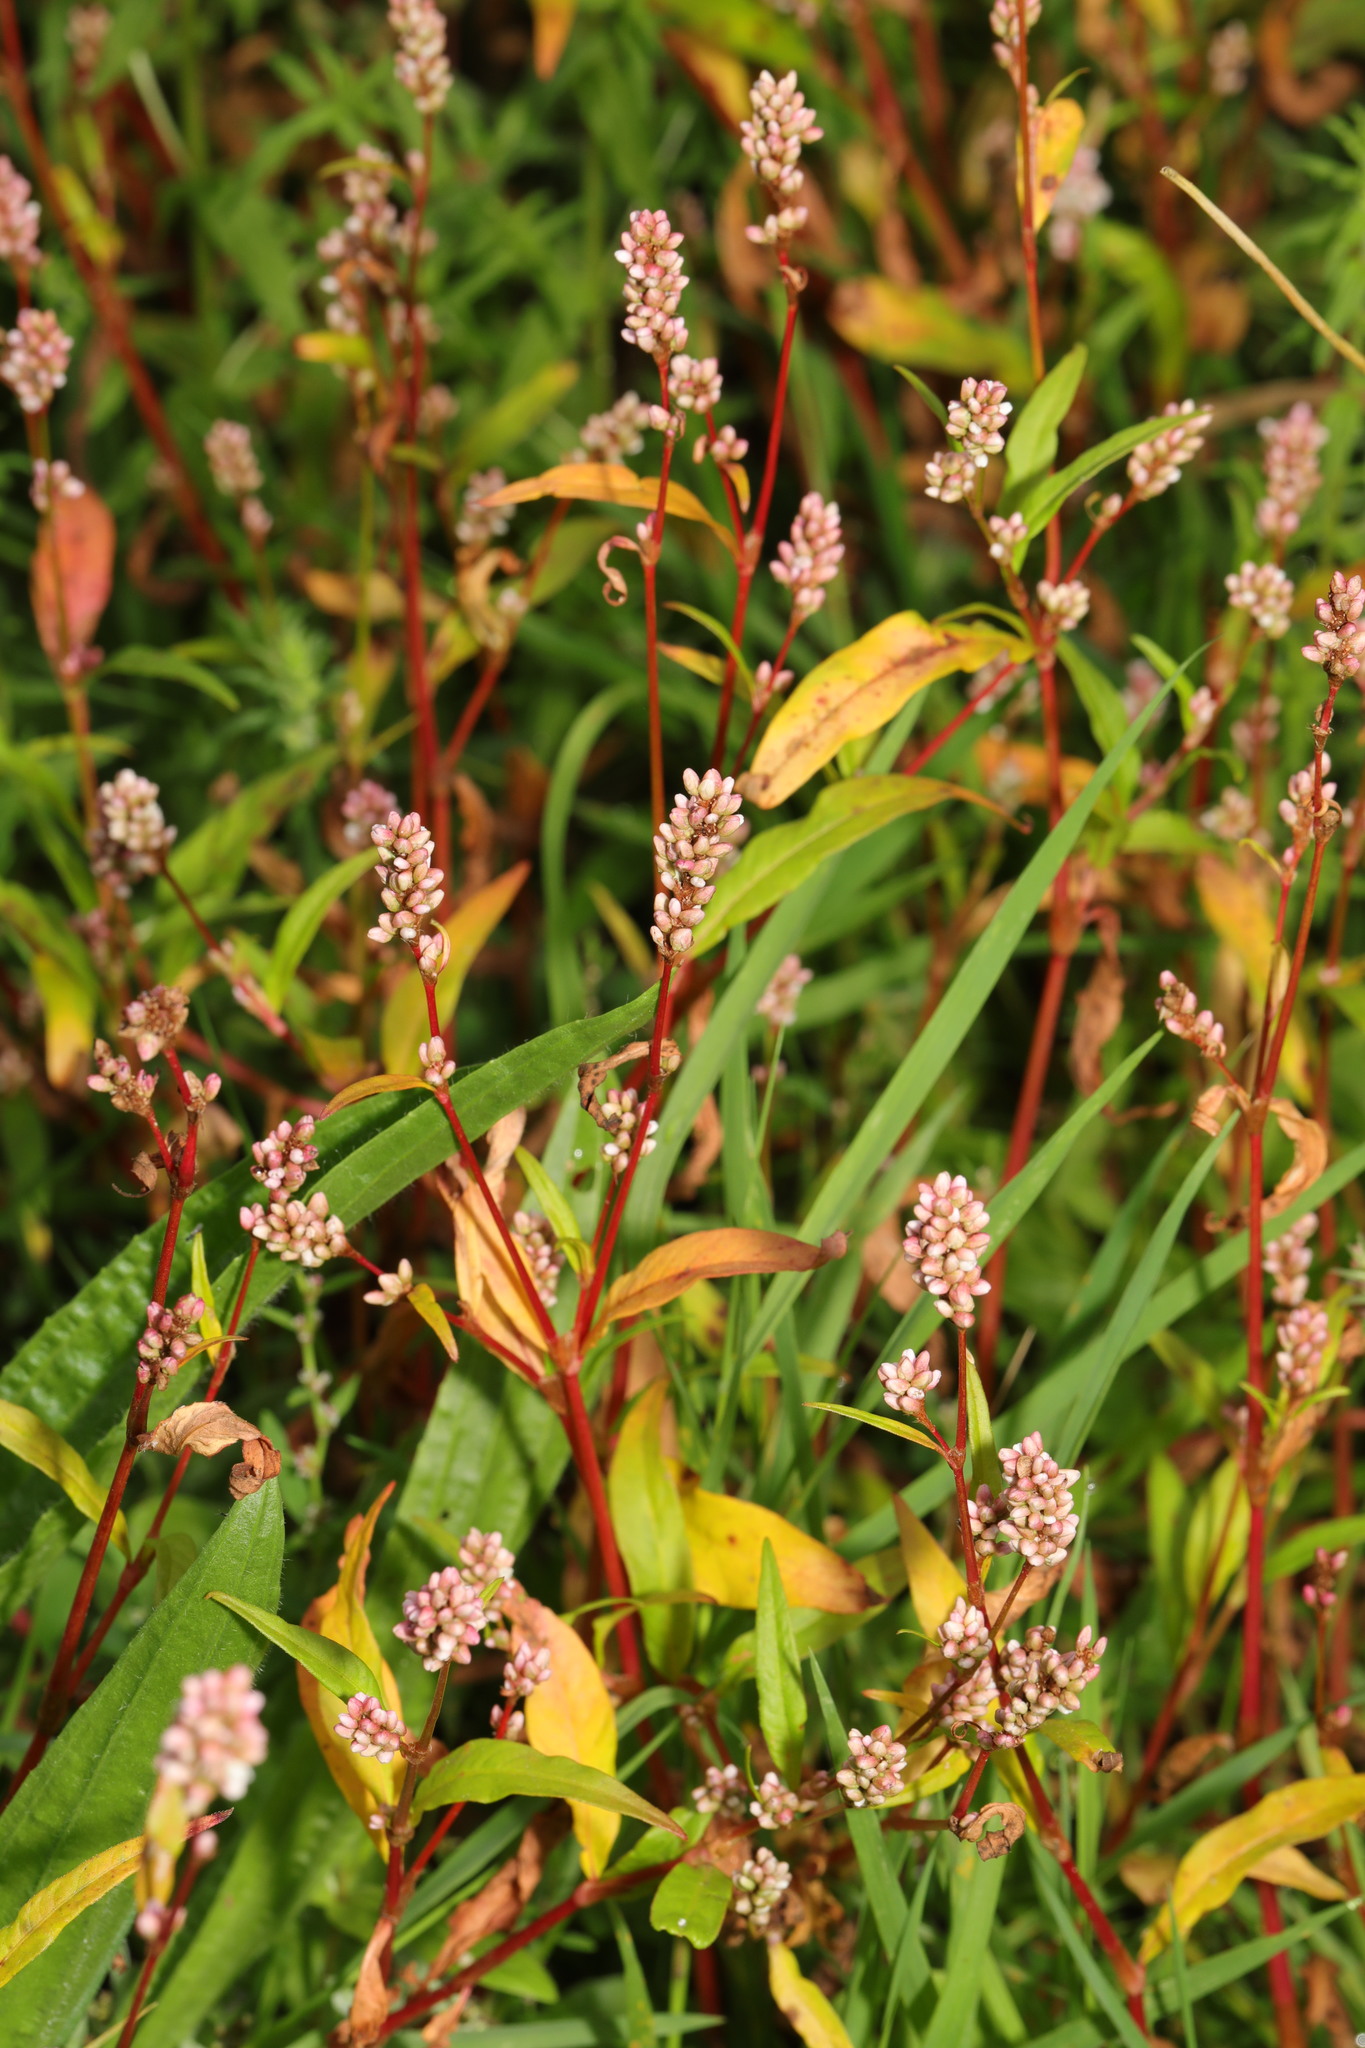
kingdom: Plantae
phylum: Tracheophyta
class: Magnoliopsida
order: Caryophyllales
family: Polygonaceae
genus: Persicaria
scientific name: Persicaria maculosa
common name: Redshank
